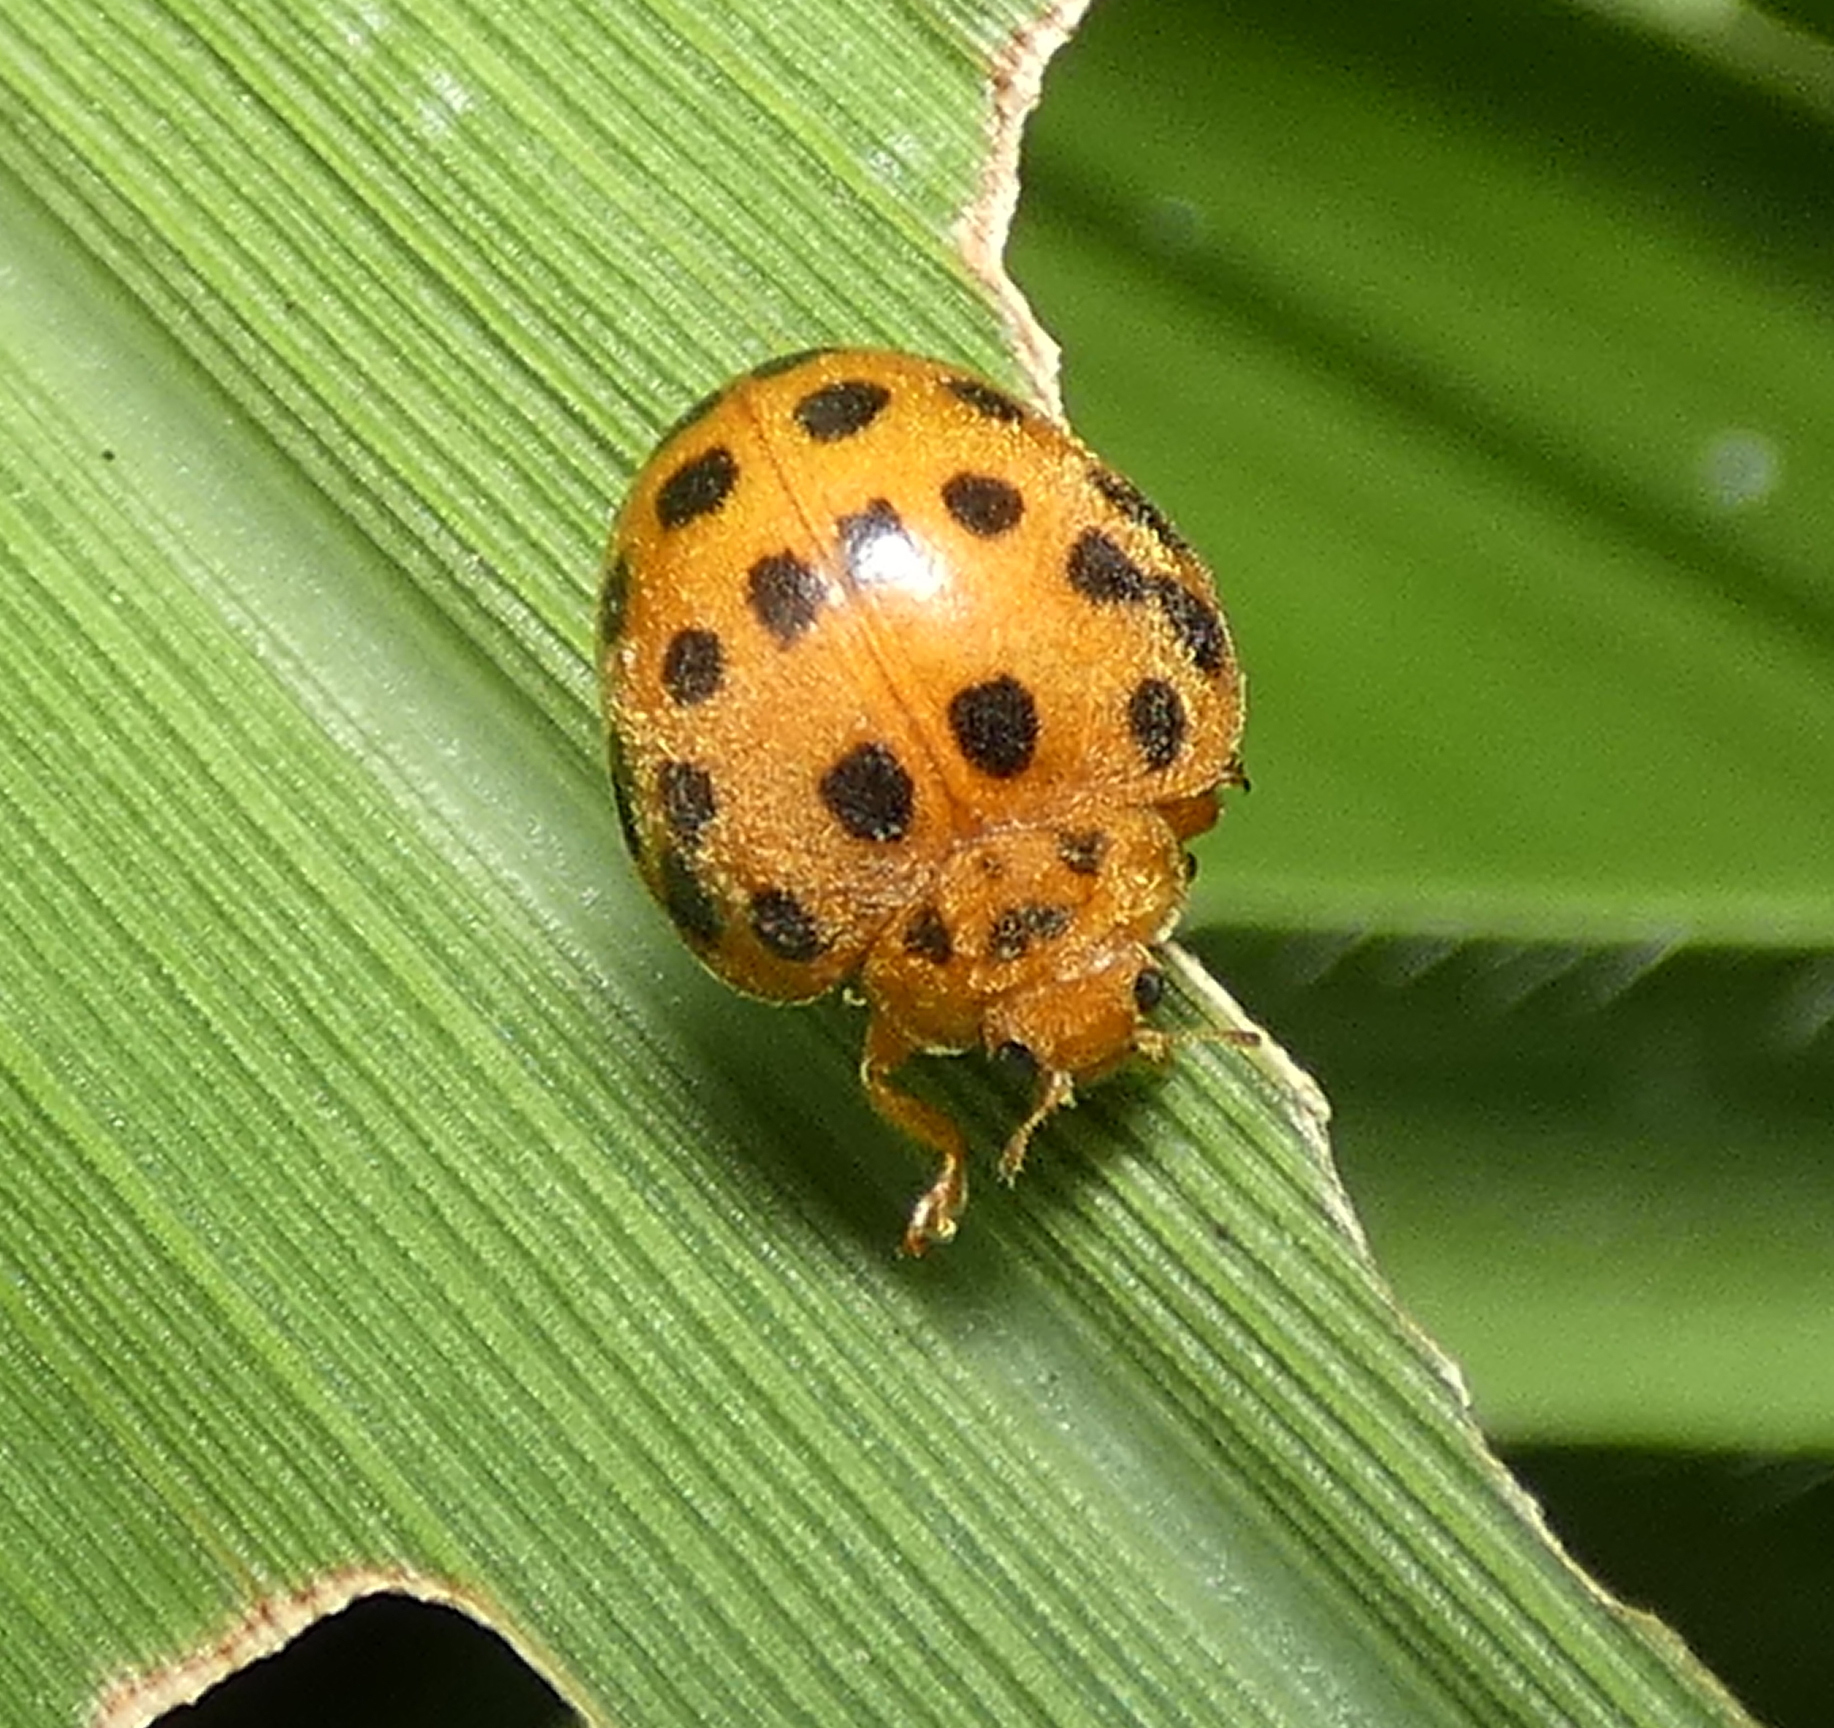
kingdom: Animalia
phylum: Arthropoda
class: Insecta
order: Coleoptera
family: Coccinellidae
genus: Henosepilachna
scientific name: Henosepilachna vigintioctopunctata
